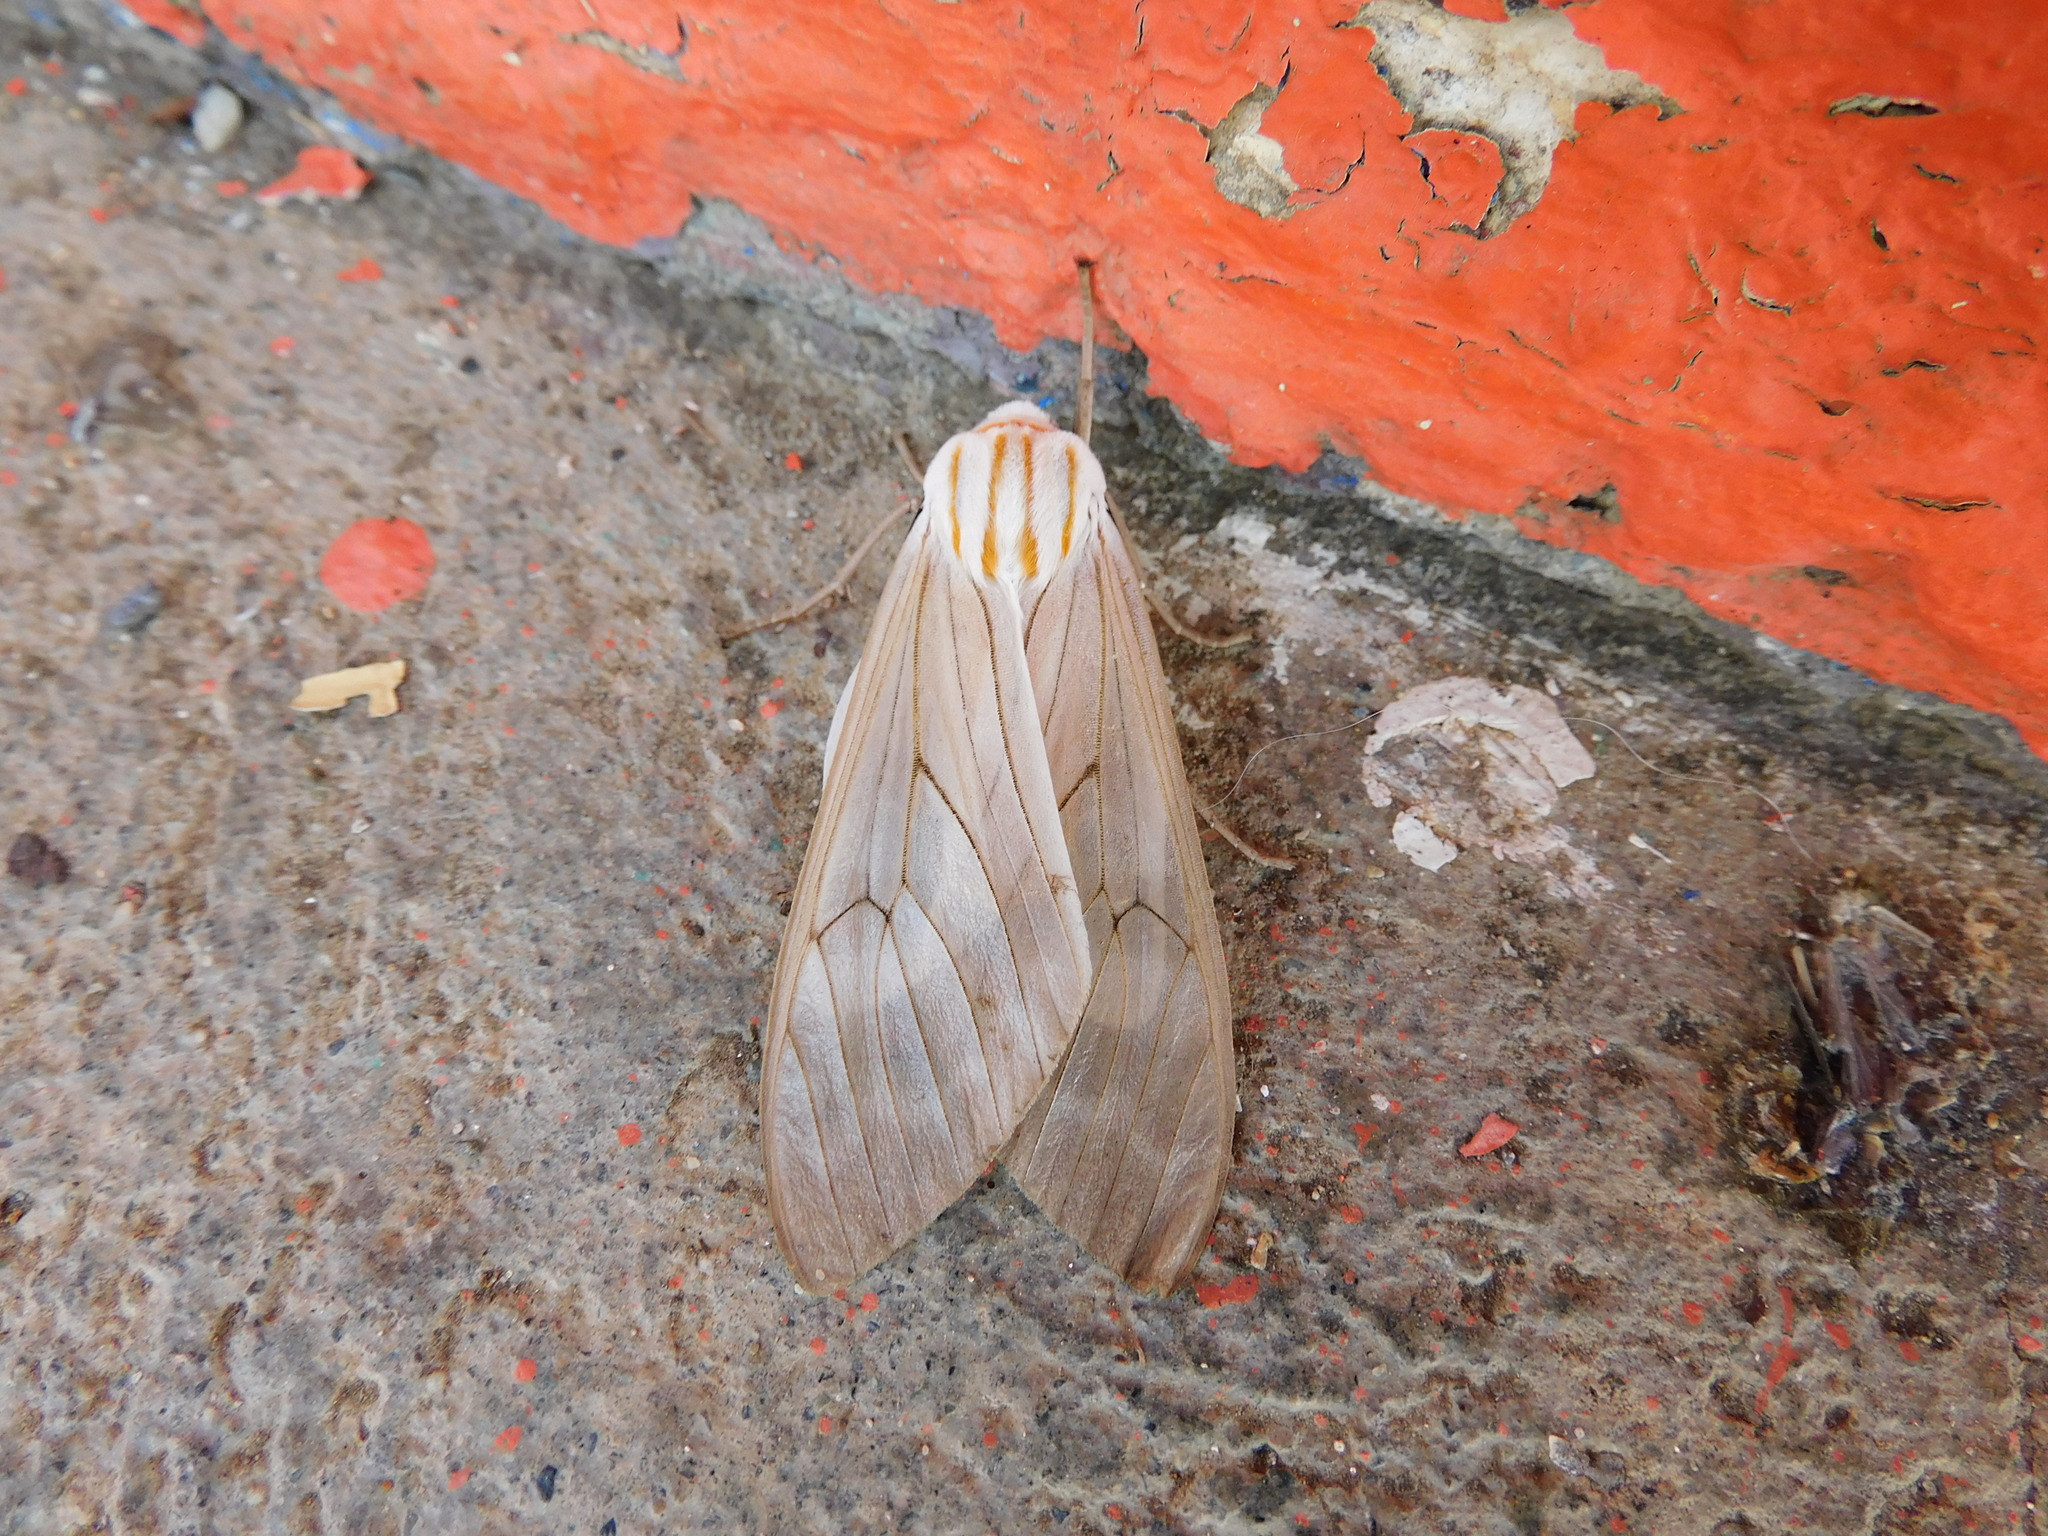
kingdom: Animalia
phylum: Arthropoda
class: Insecta
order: Lepidoptera
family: Erebidae
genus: Amastus
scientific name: Amastus aconia
